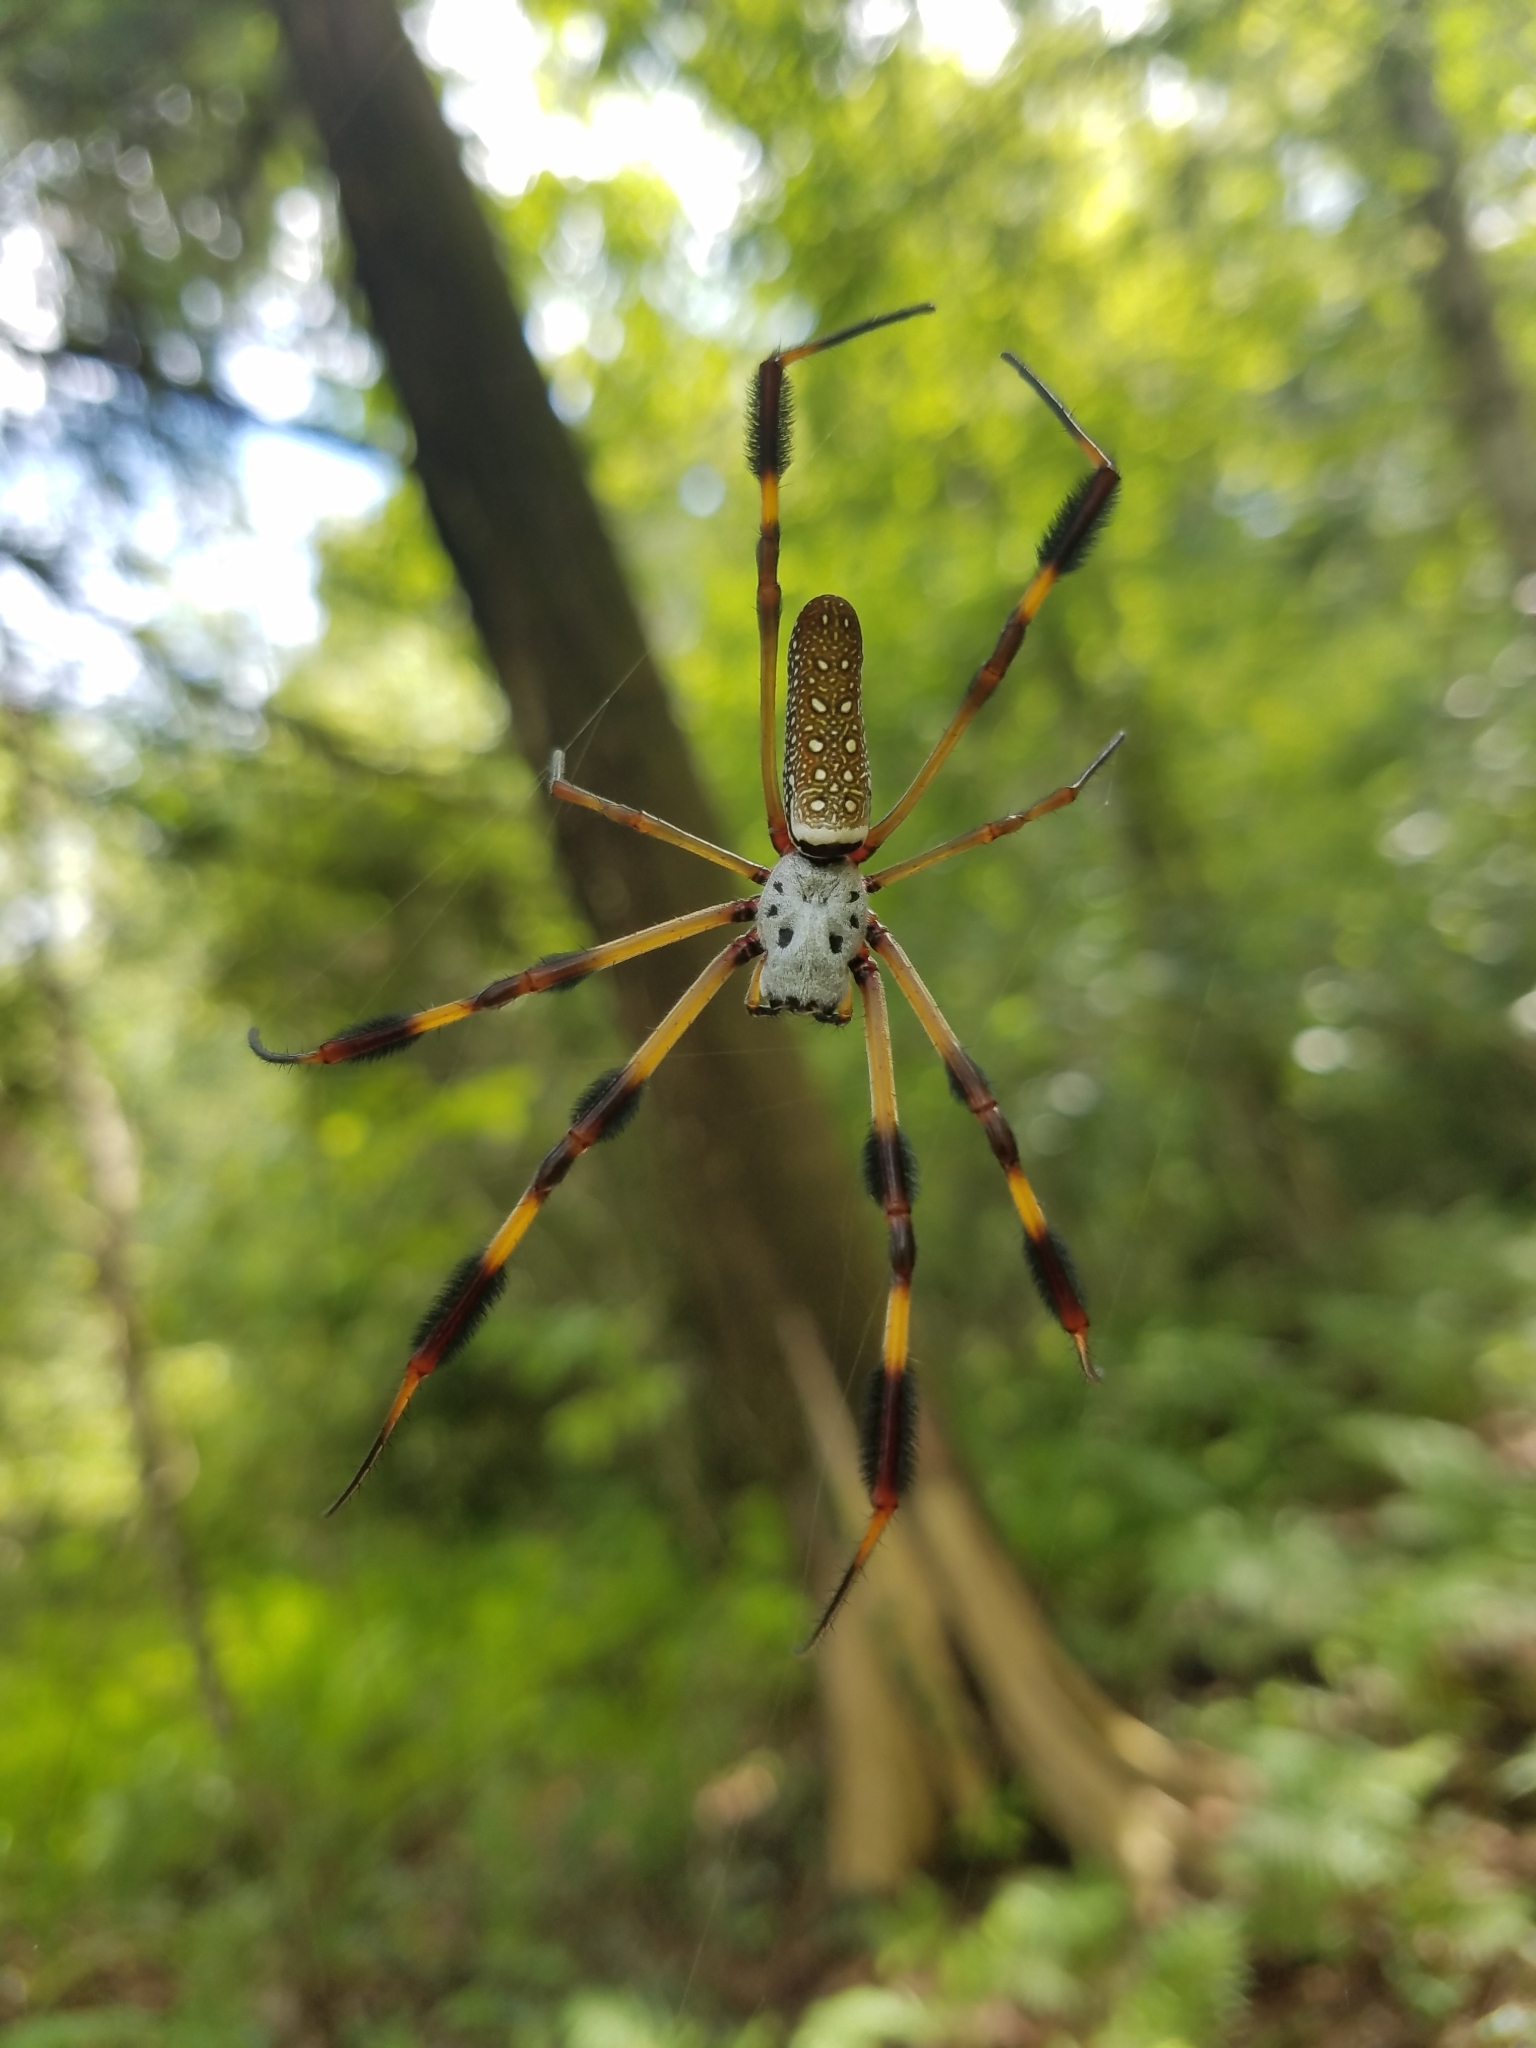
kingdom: Animalia
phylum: Arthropoda
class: Arachnida
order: Araneae
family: Araneidae
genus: Trichonephila
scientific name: Trichonephila clavipes
